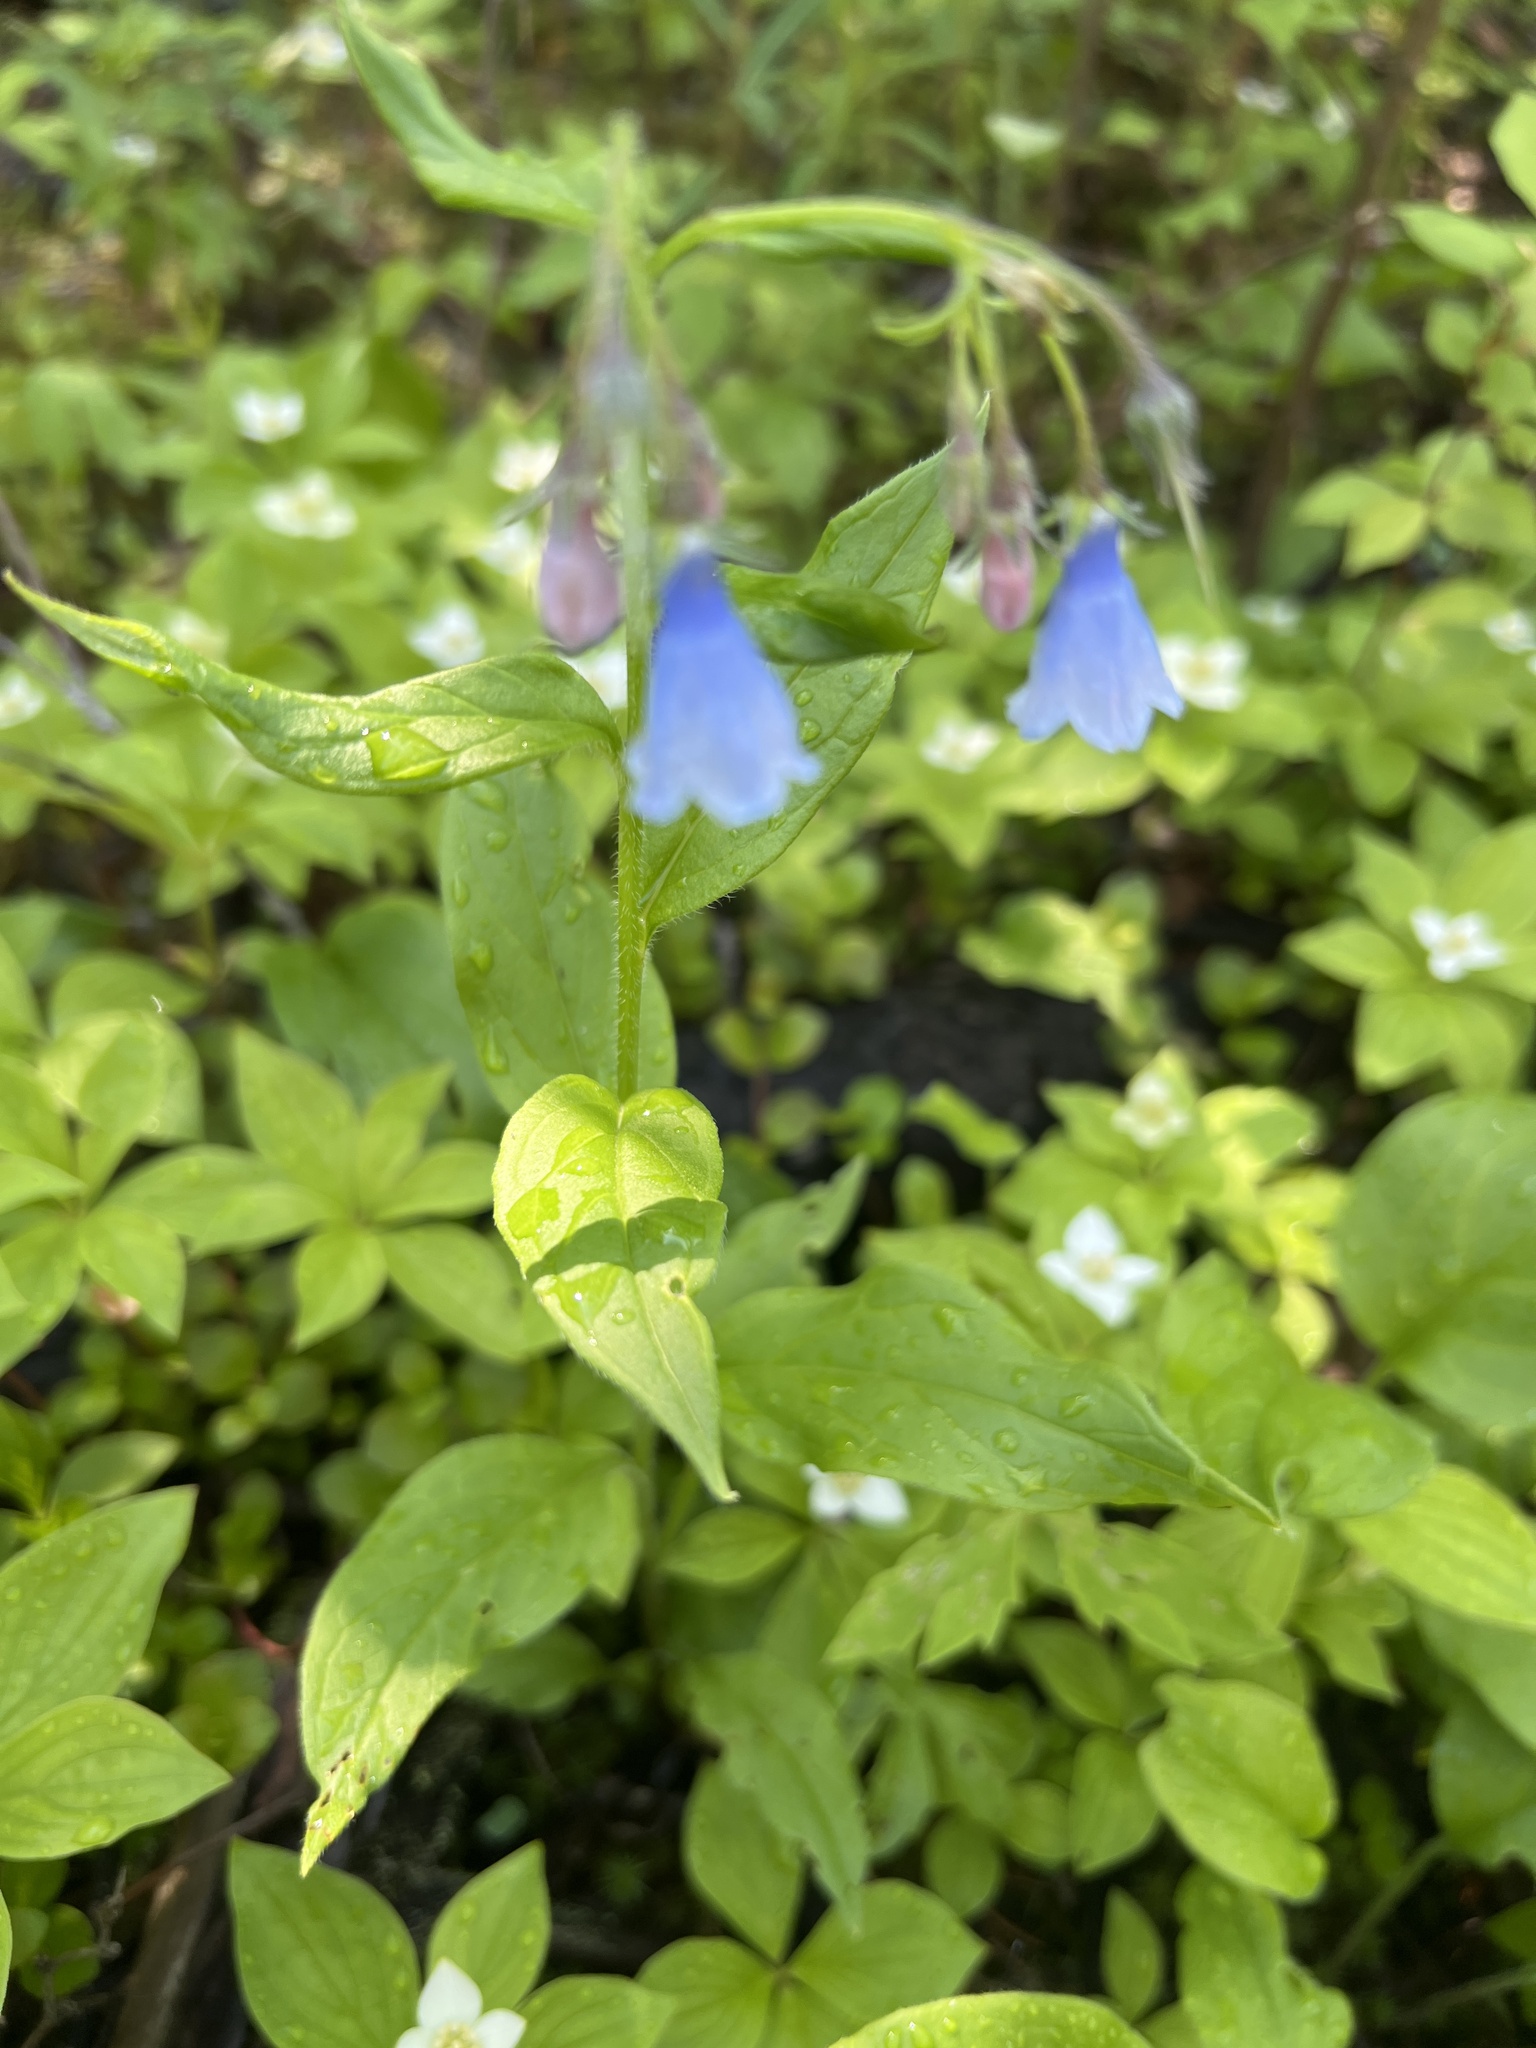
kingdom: Plantae
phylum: Tracheophyta
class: Magnoliopsida
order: Boraginales
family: Boraginaceae
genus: Mertensia
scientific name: Mertensia paniculata
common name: Panicled bluebells
